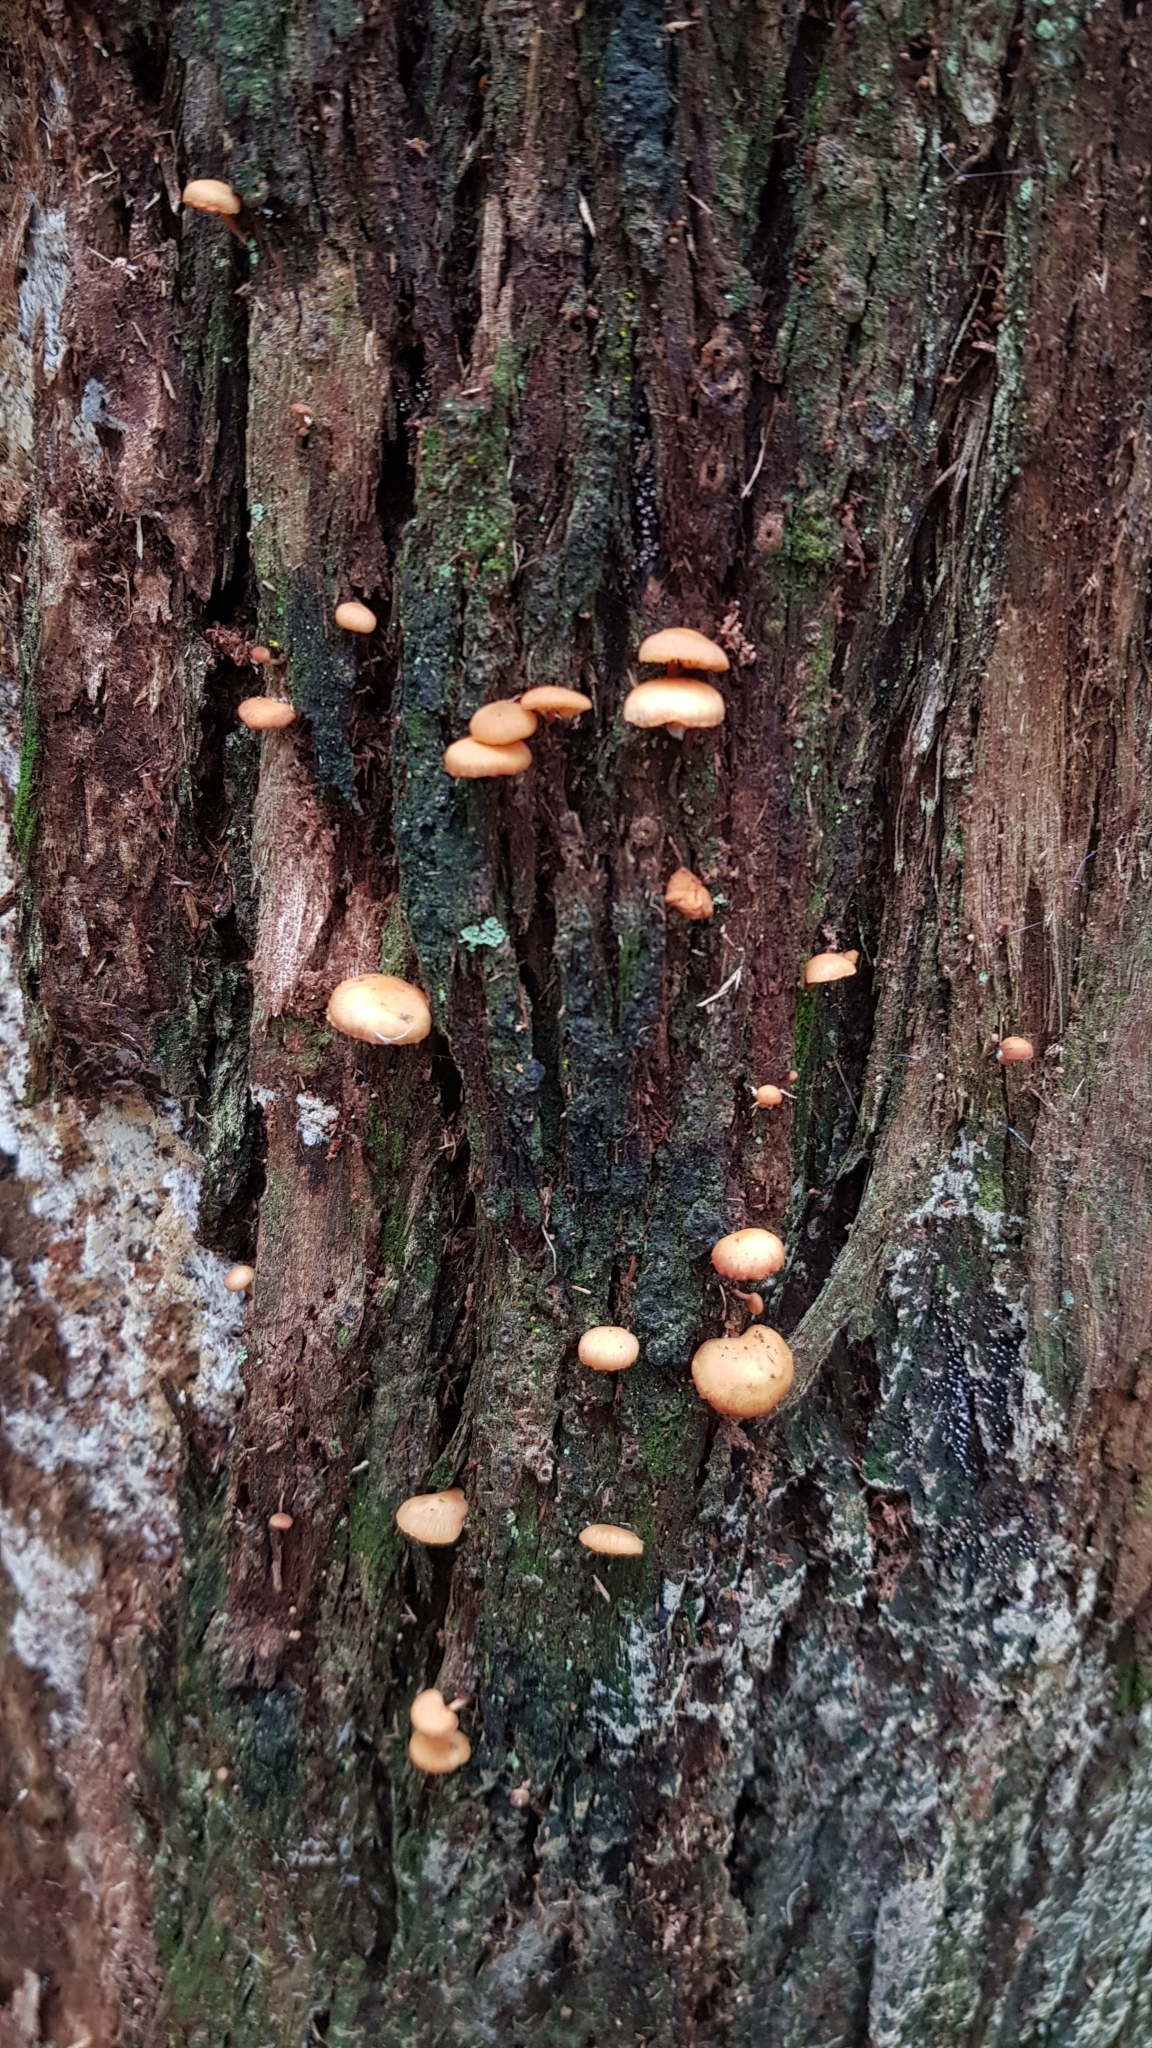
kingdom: Plantae
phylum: Tracheophyta
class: Liliopsida
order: Asparagales
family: Orchidaceae
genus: Dipodium
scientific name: Dipodium variegatum
